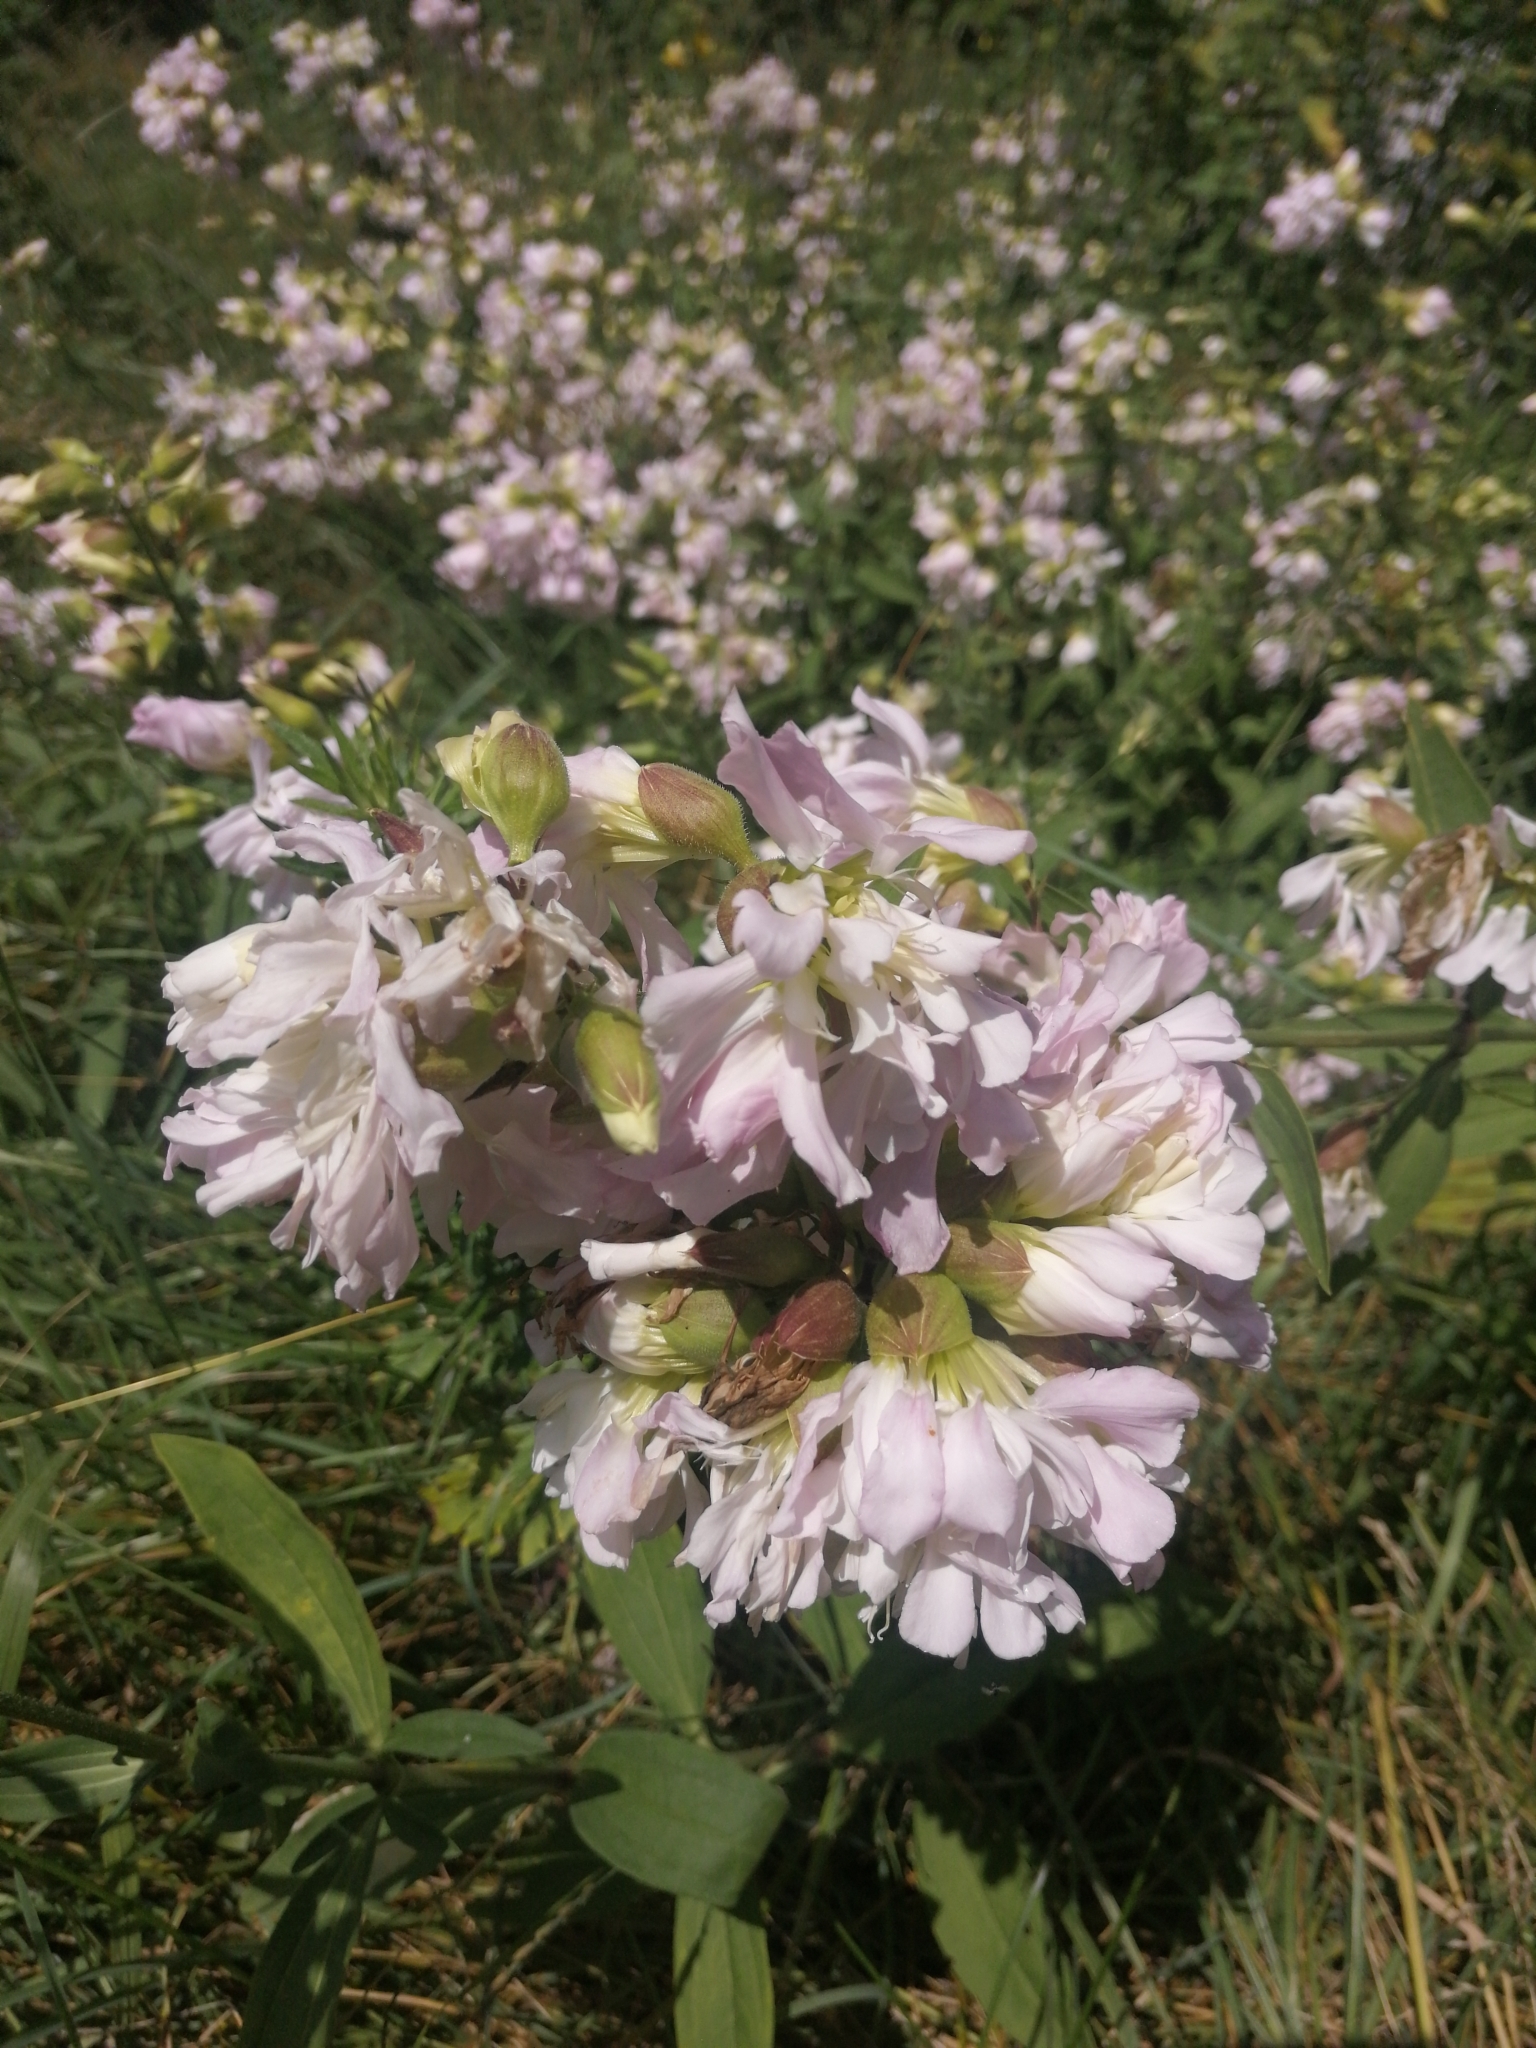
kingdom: Plantae
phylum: Tracheophyta
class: Magnoliopsida
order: Caryophyllales
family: Caryophyllaceae
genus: Saponaria
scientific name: Saponaria officinalis
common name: Soapwort
